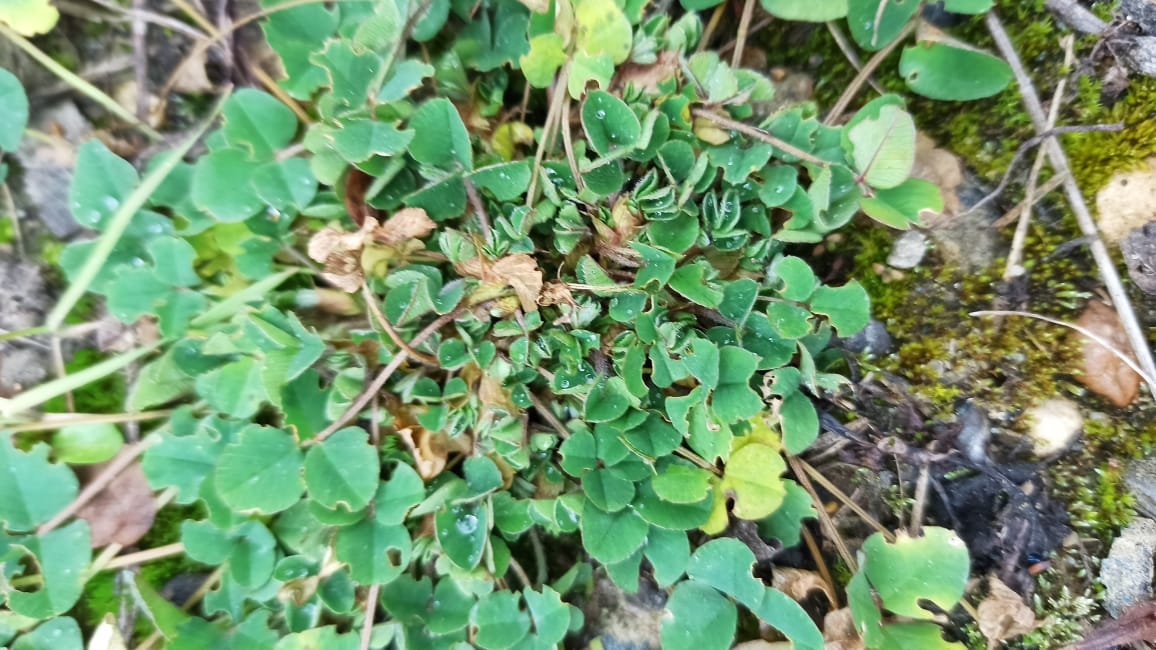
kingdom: Plantae
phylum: Tracheophyta
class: Magnoliopsida
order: Fabales
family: Fabaceae
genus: Medicago
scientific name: Medicago lupulina
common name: Black medick
